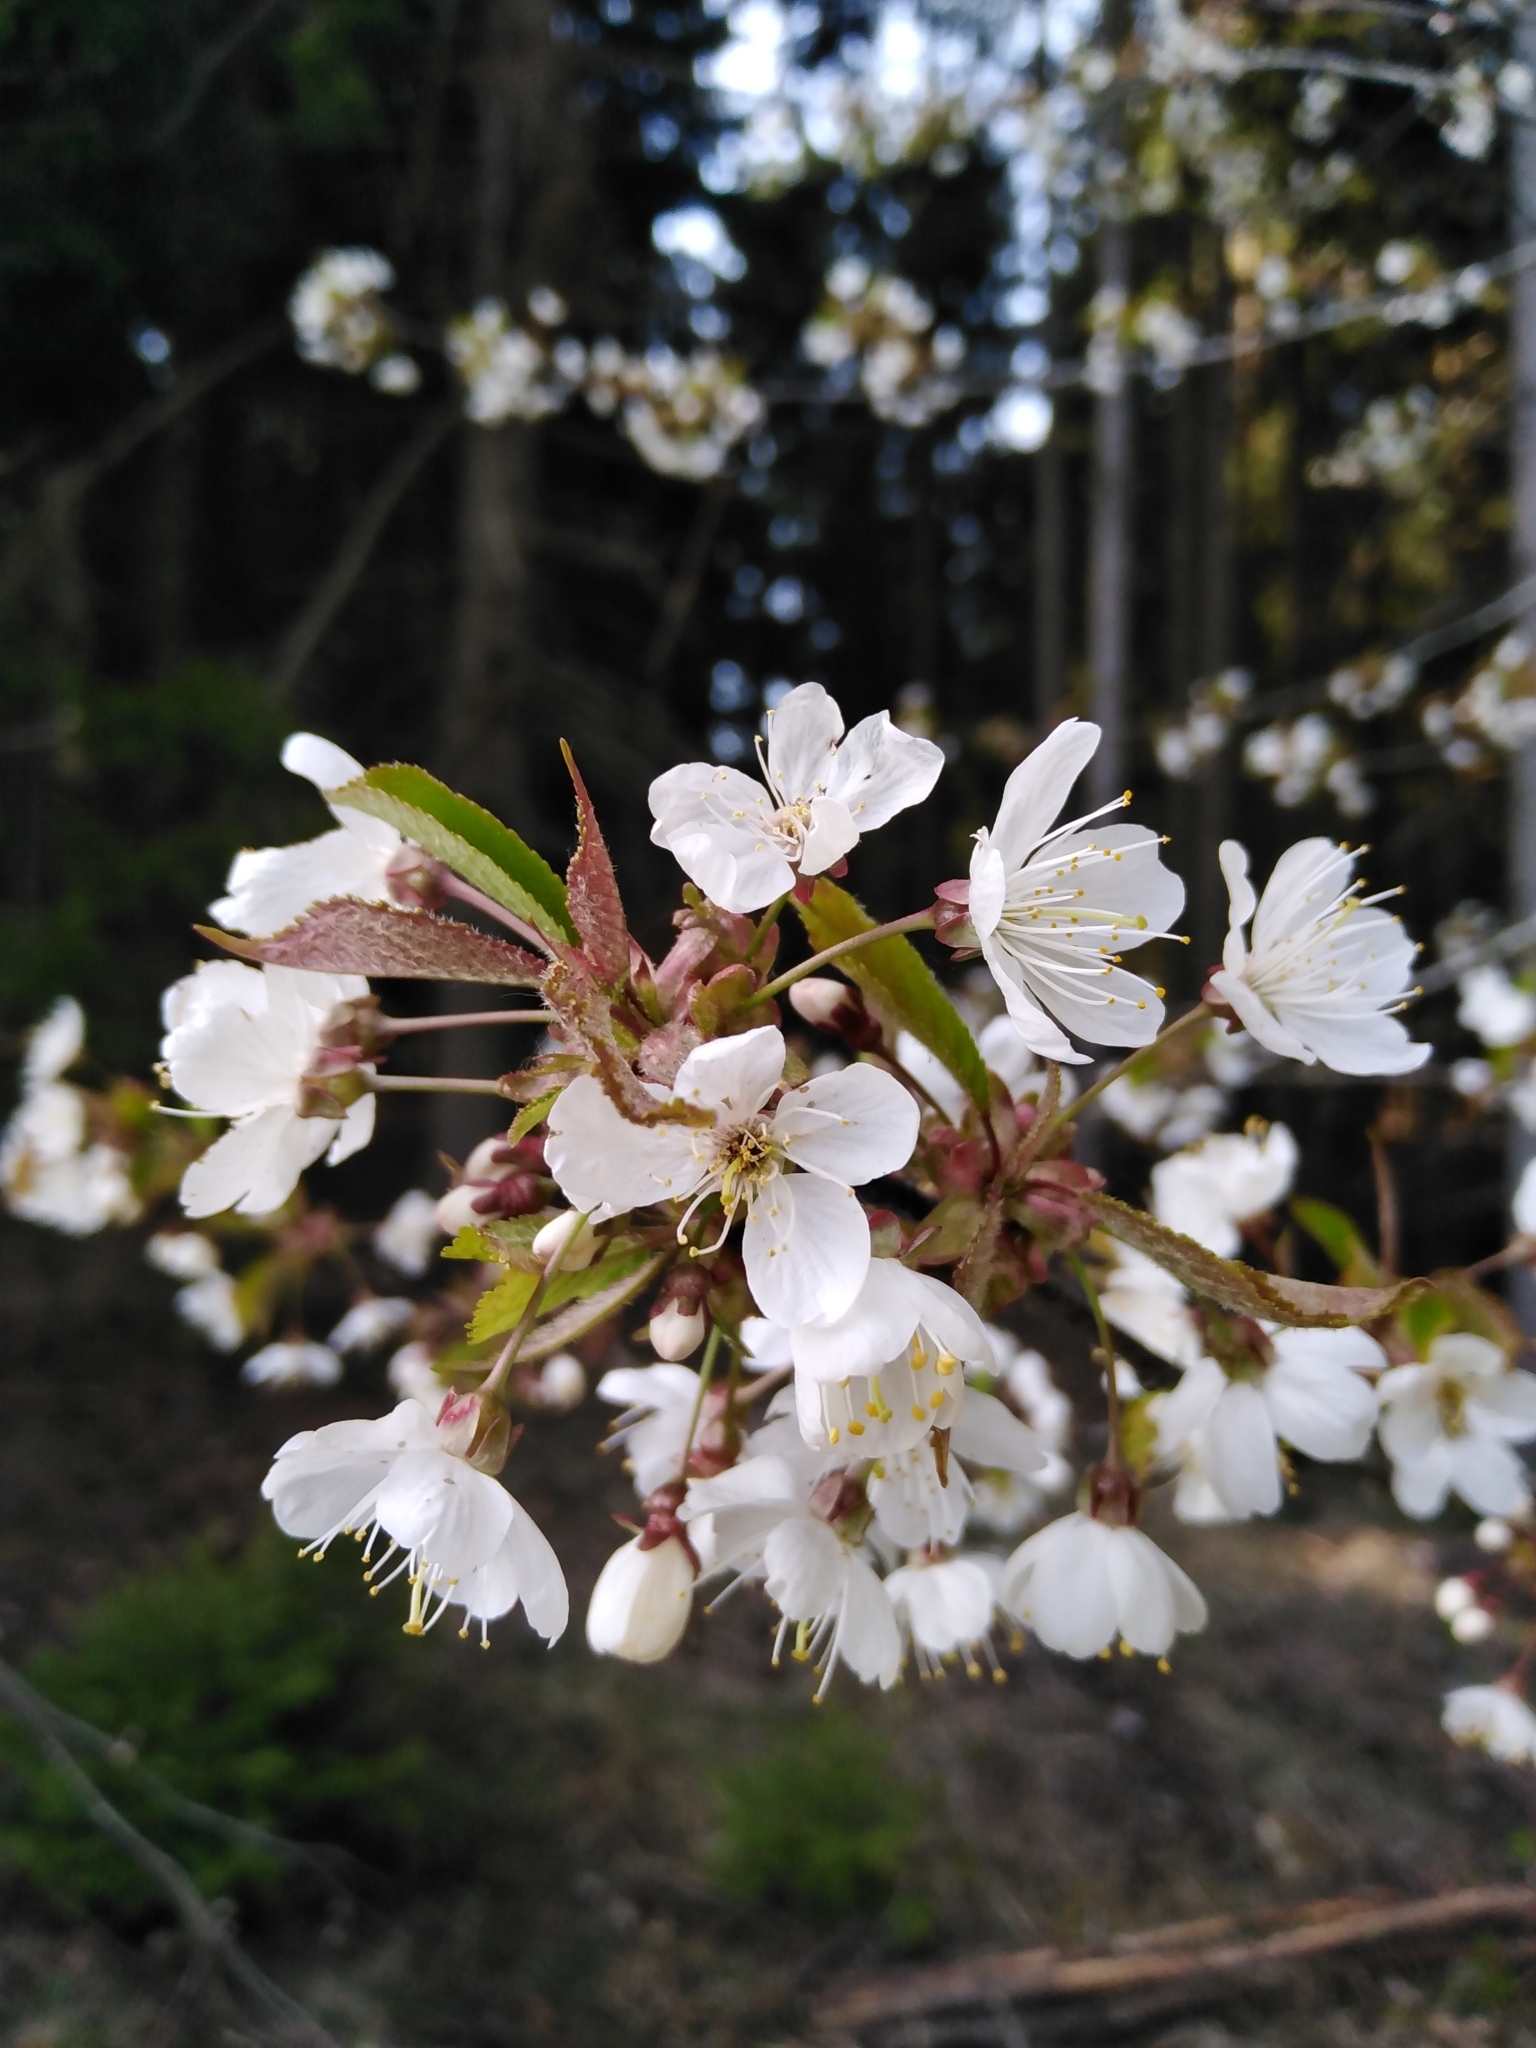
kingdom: Plantae
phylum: Tracheophyta
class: Magnoliopsida
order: Rosales
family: Rosaceae
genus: Prunus
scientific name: Prunus avium
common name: Sweet cherry
